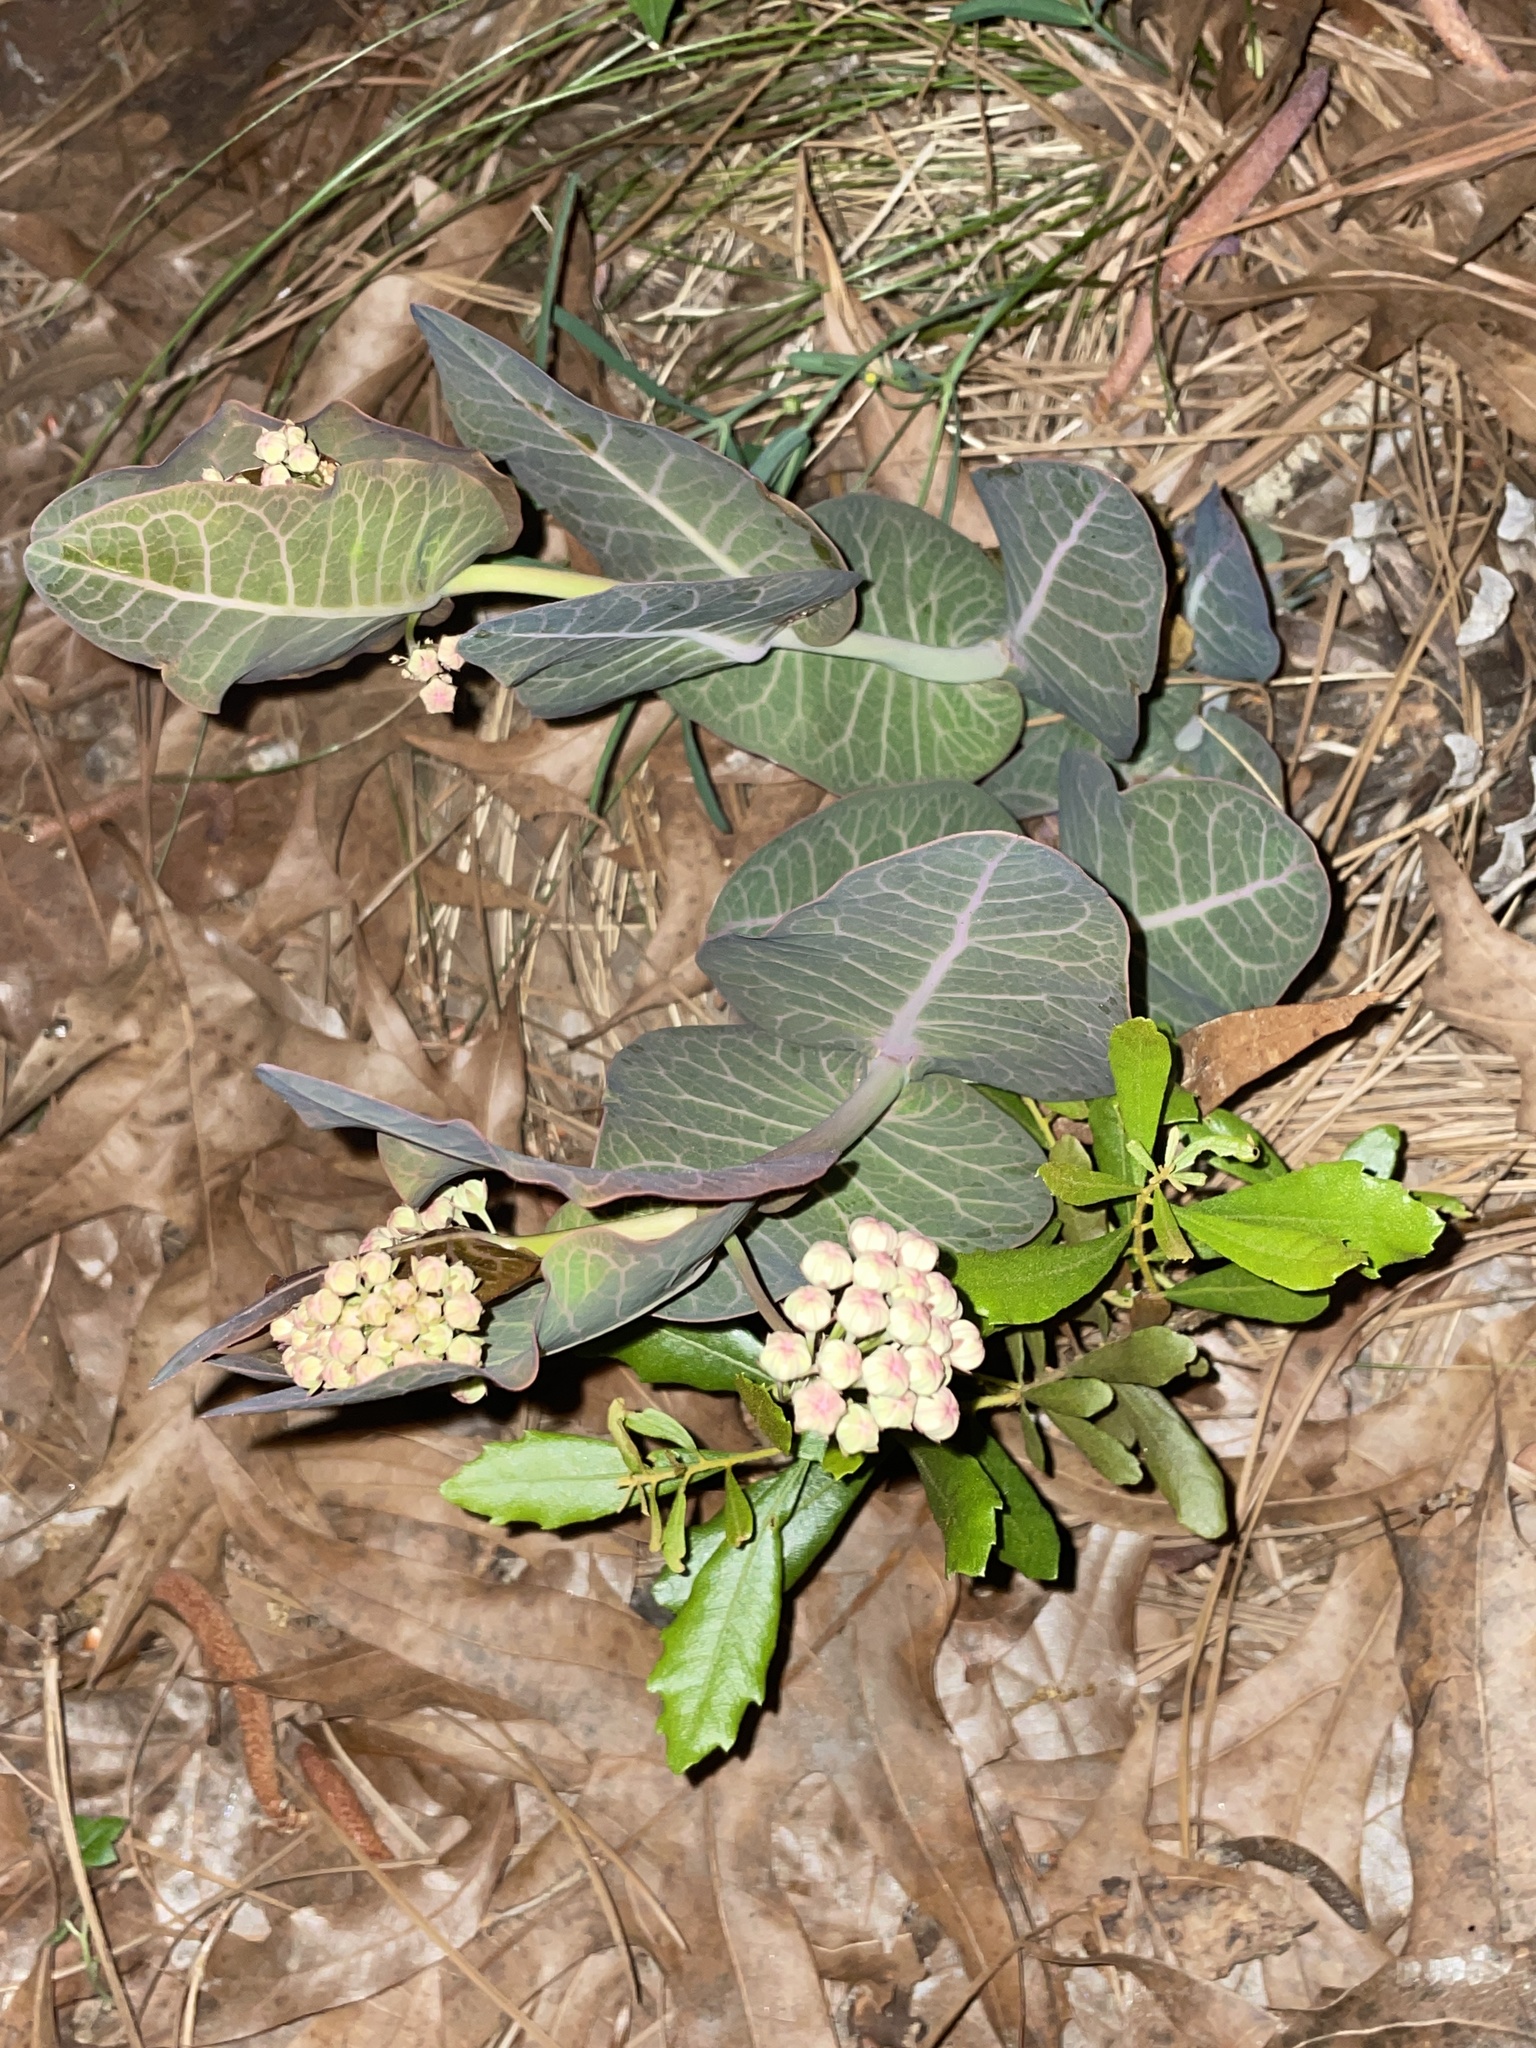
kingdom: Plantae
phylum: Tracheophyta
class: Magnoliopsida
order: Gentianales
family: Apocynaceae
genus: Asclepias
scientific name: Asclepias humistrata
